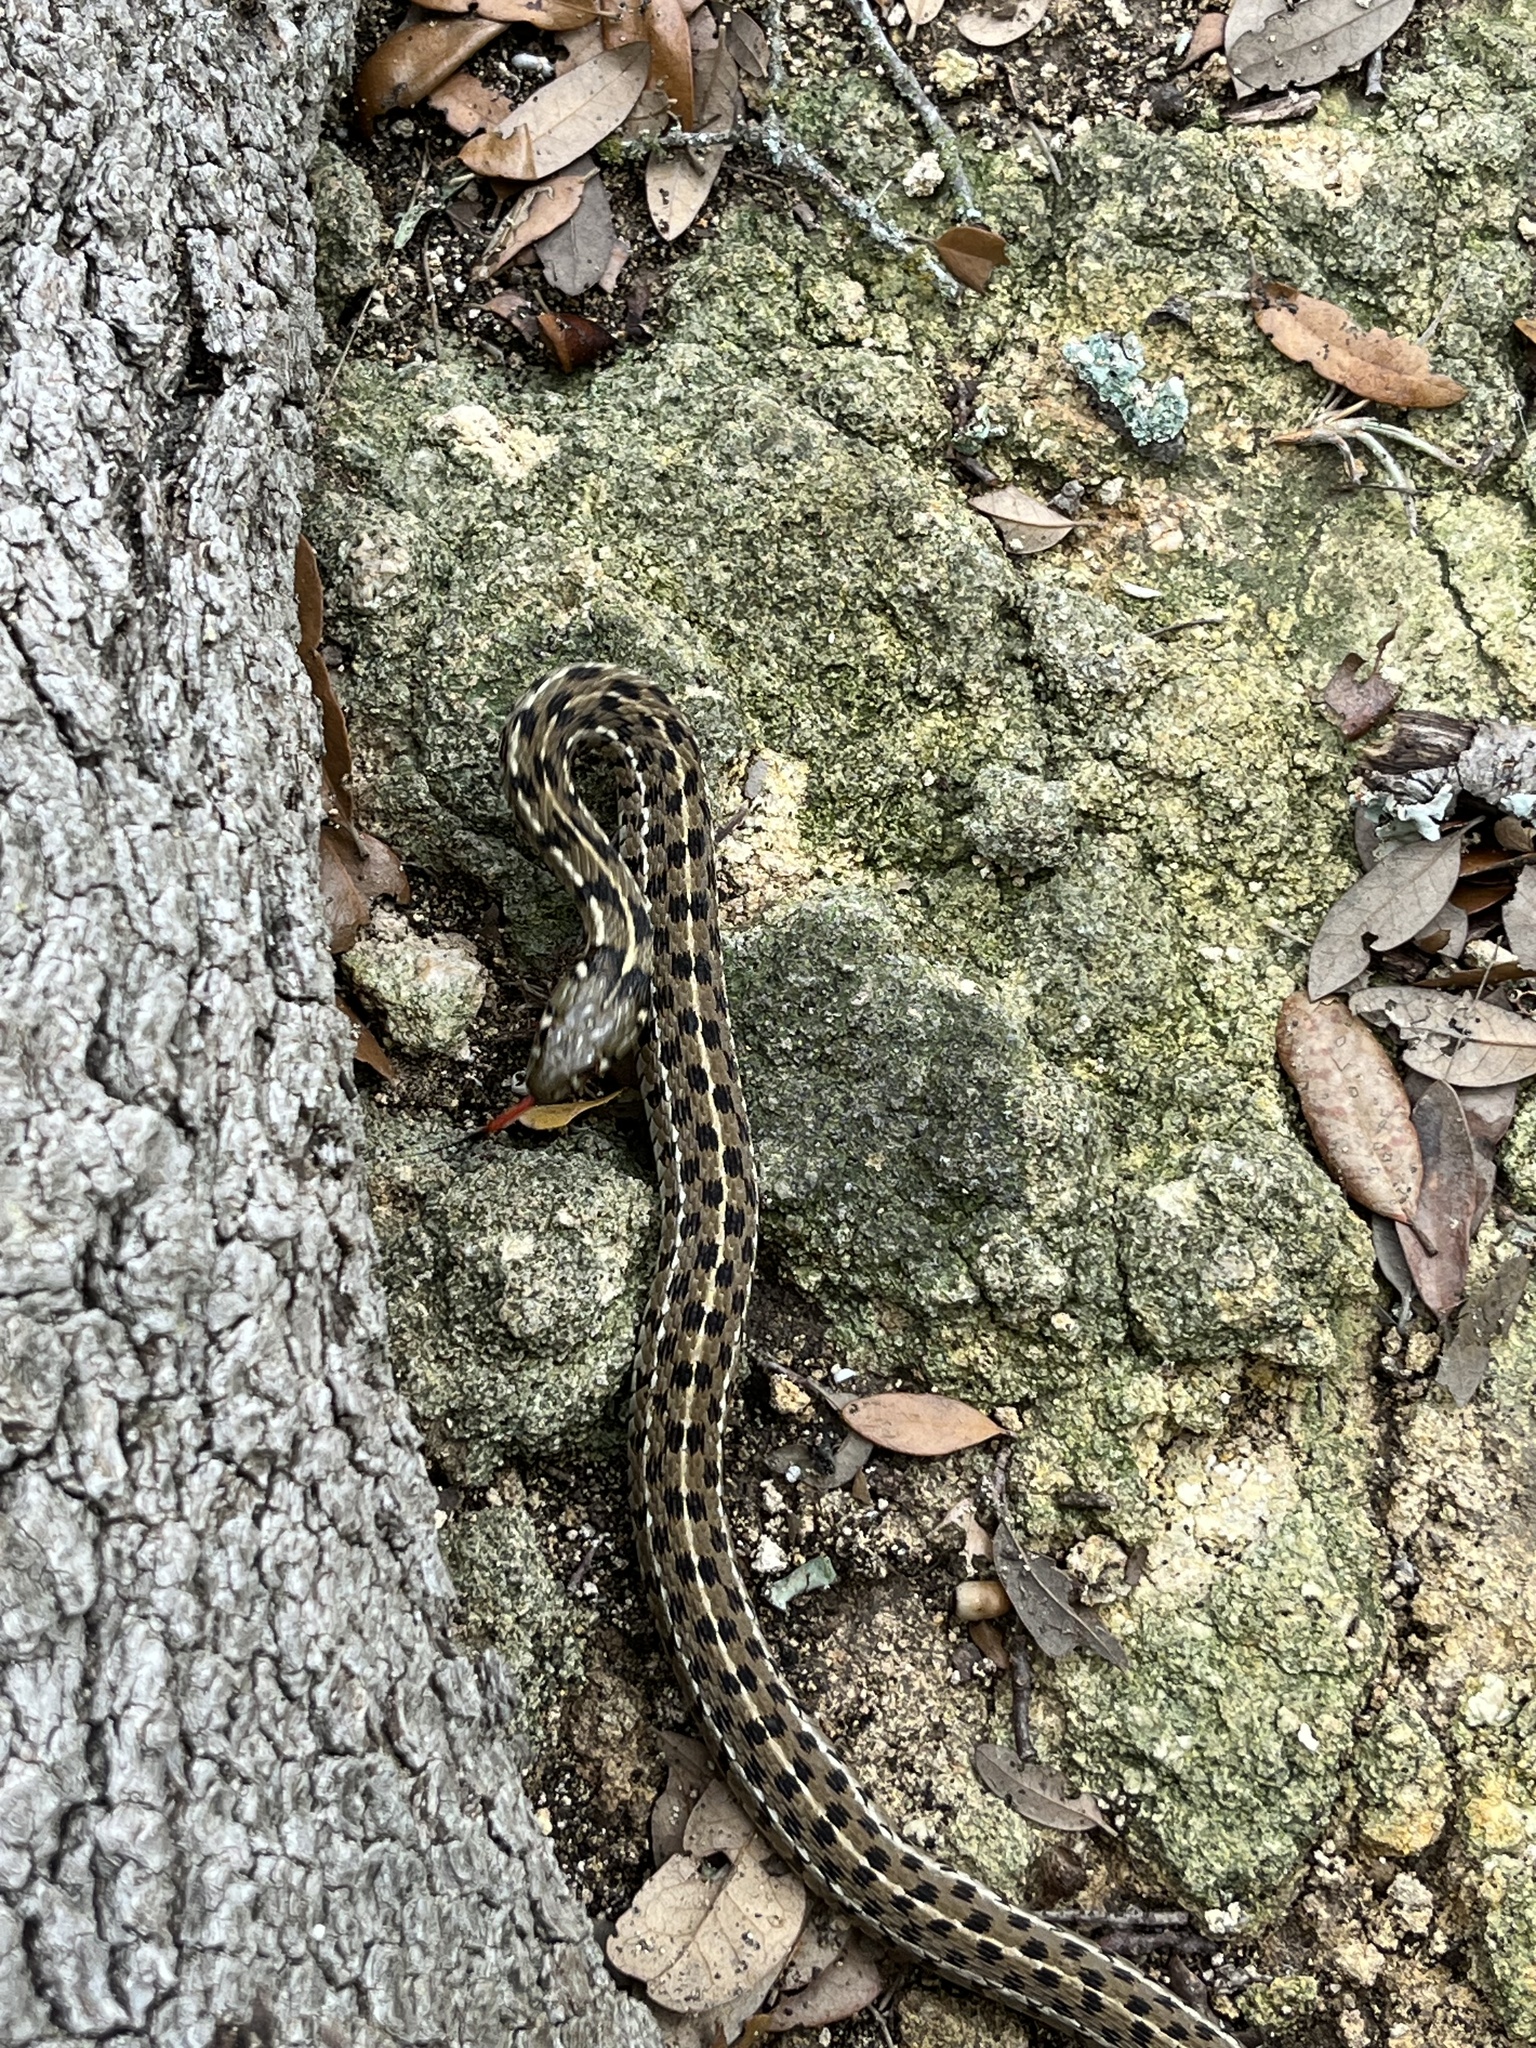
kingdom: Animalia
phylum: Chordata
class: Squamata
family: Colubridae
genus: Thamnophis
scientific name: Thamnophis marcianus
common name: Checkered garter snake
